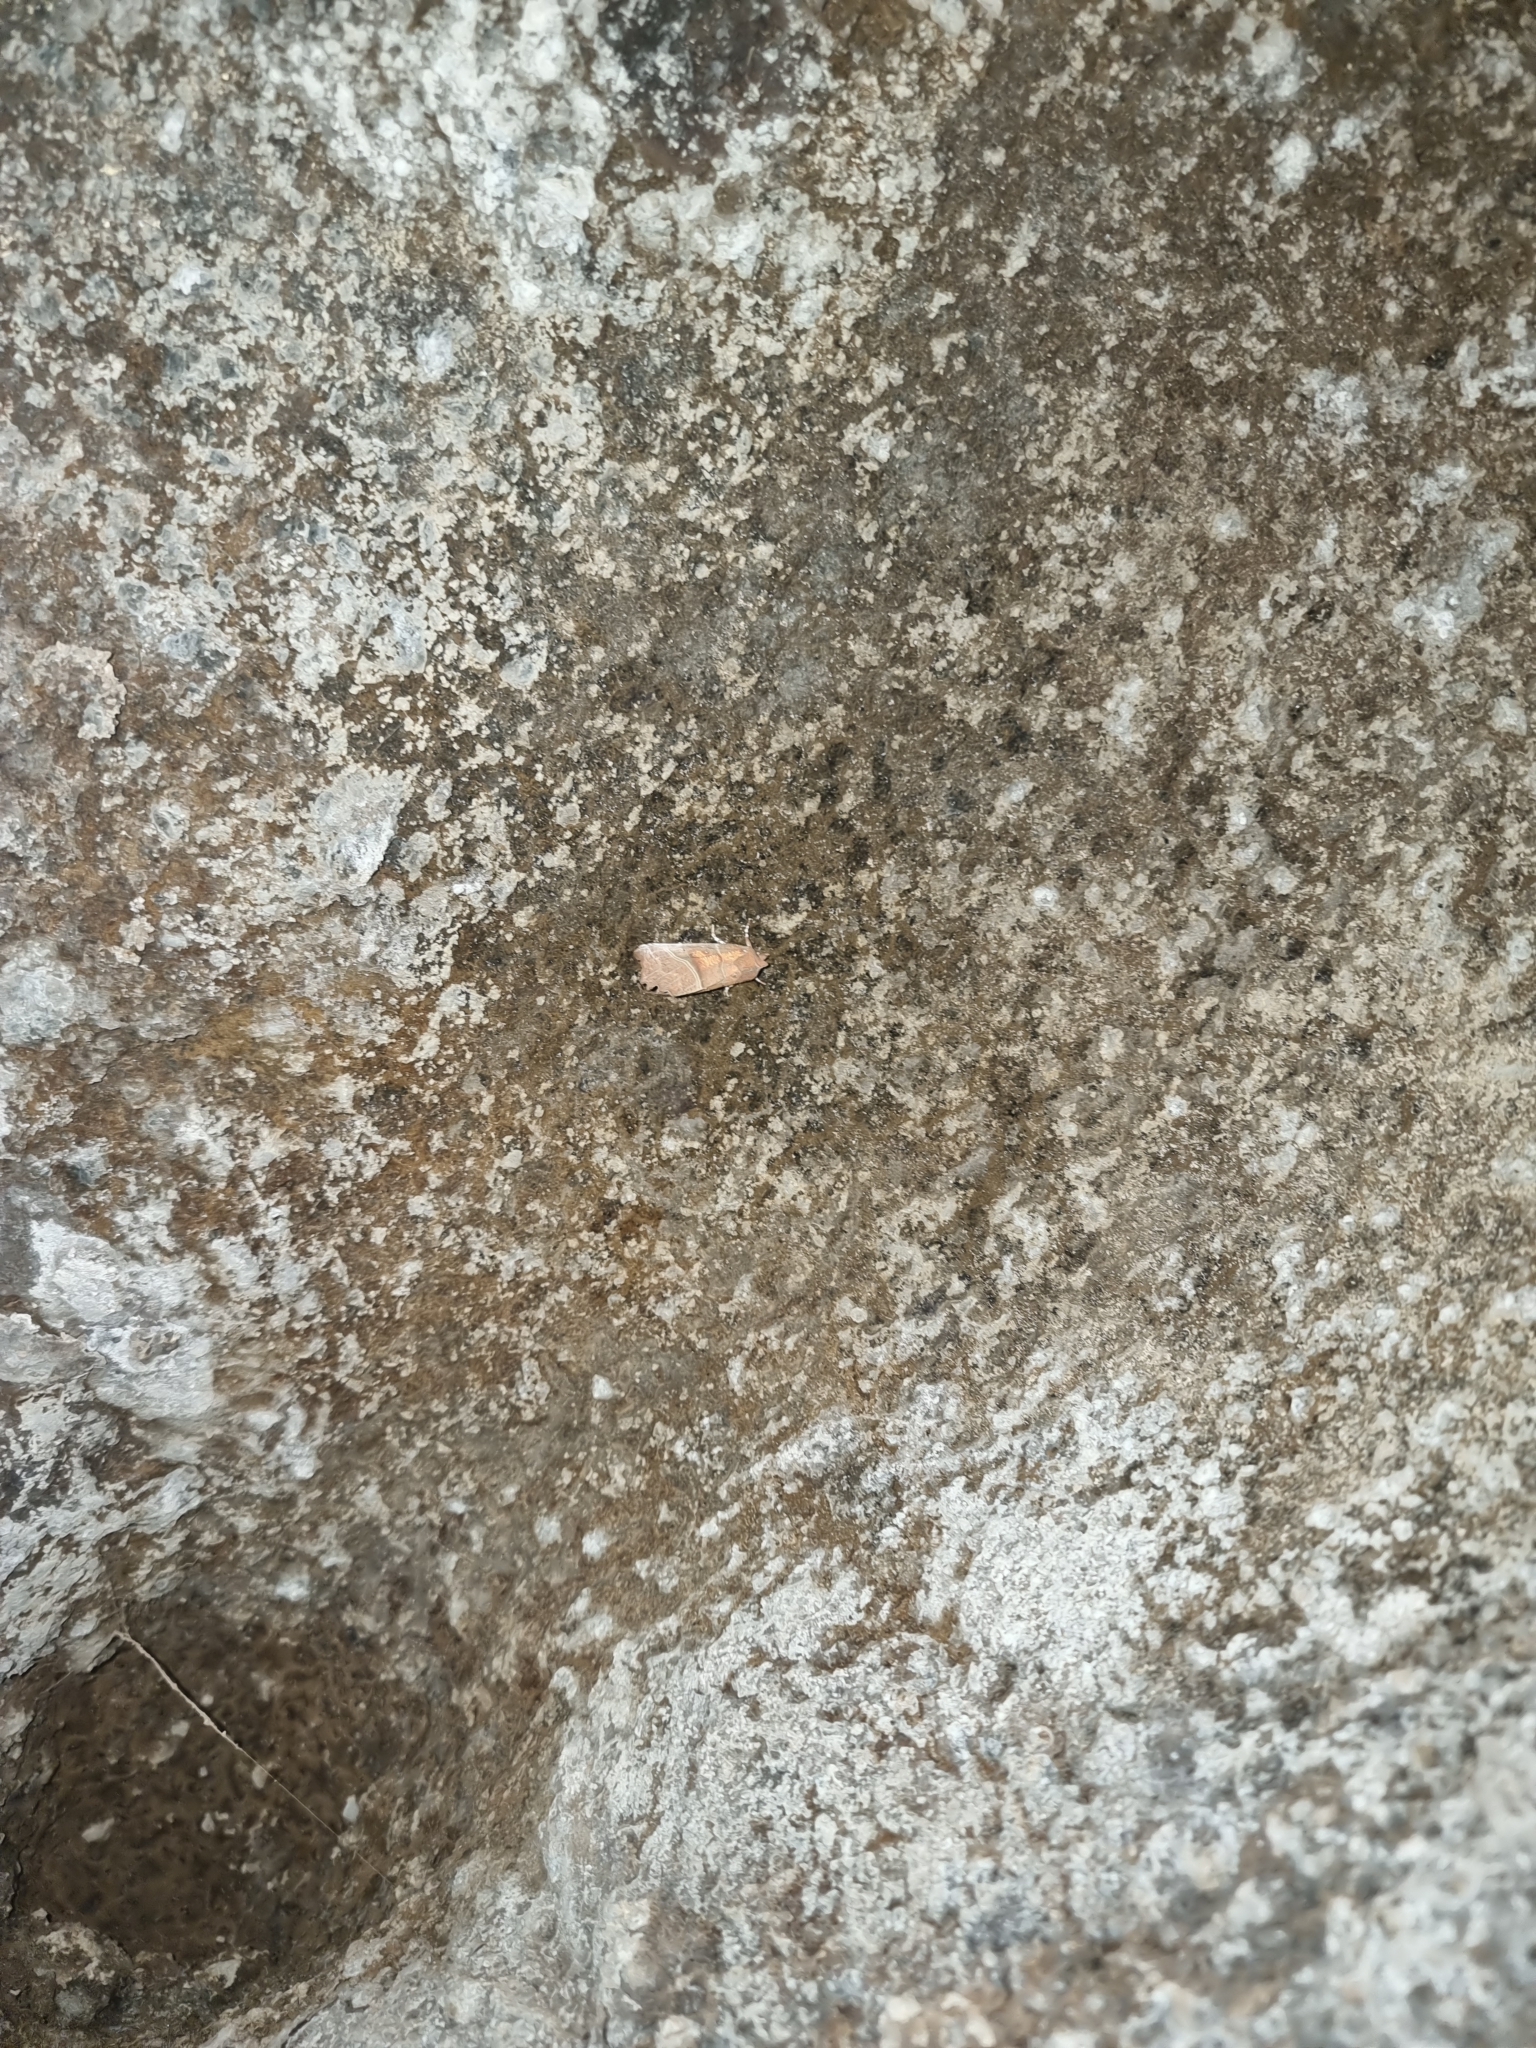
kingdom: Animalia
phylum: Arthropoda
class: Insecta
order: Lepidoptera
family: Erebidae
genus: Scoliopteryx
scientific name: Scoliopteryx libatrix
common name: Herald
